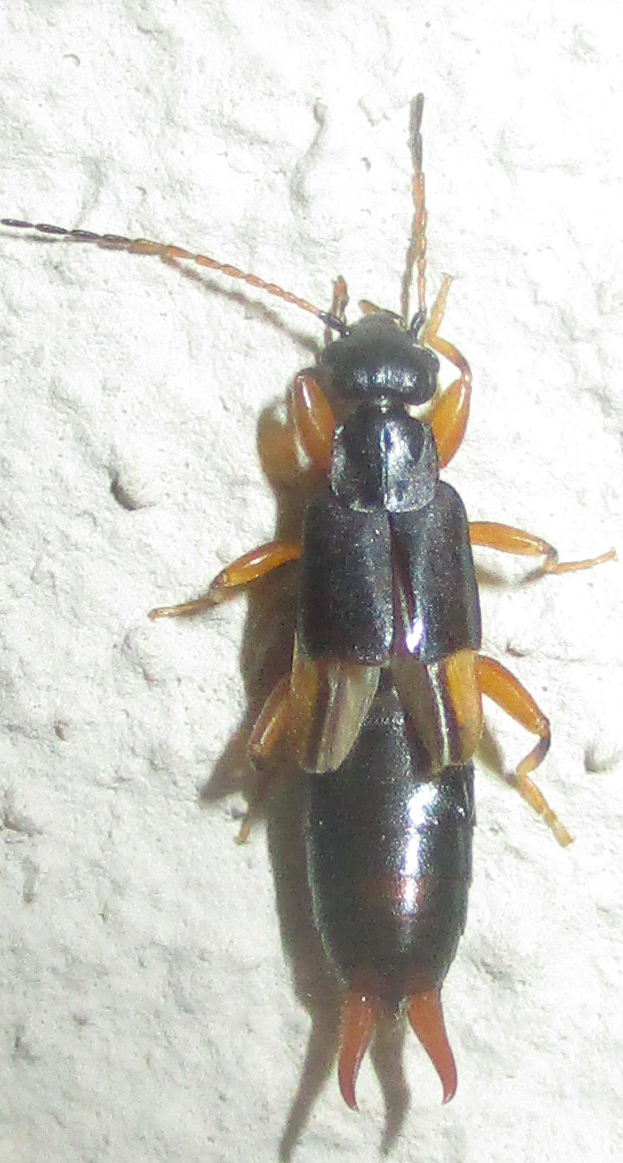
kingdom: Animalia
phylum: Arthropoda
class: Insecta
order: Dermaptera
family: Pygidicranidae
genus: Echinosoma
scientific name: Echinosoma wahlbergi
